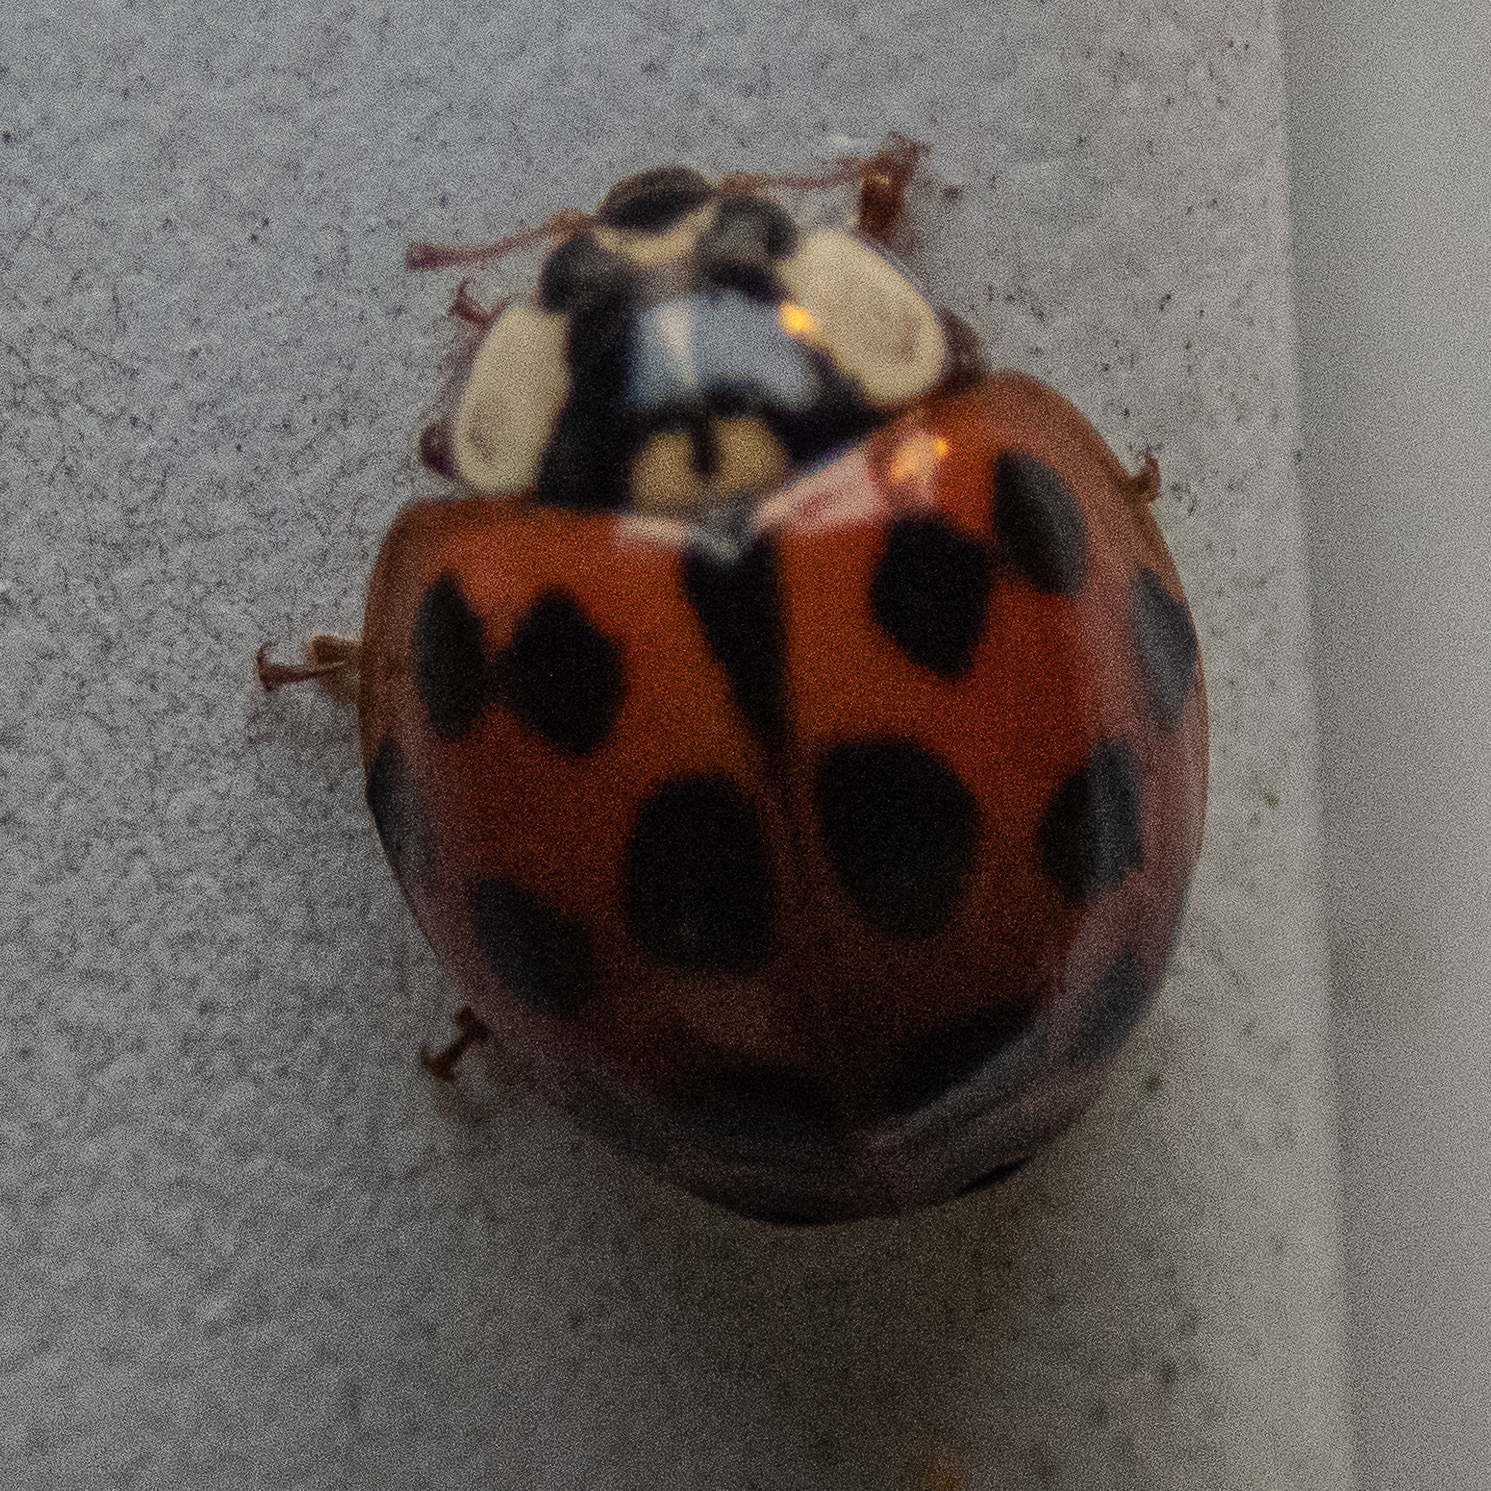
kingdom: Animalia
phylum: Arthropoda
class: Insecta
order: Coleoptera
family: Coccinellidae
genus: Harmonia
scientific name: Harmonia axyridis
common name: Harlequin ladybird
